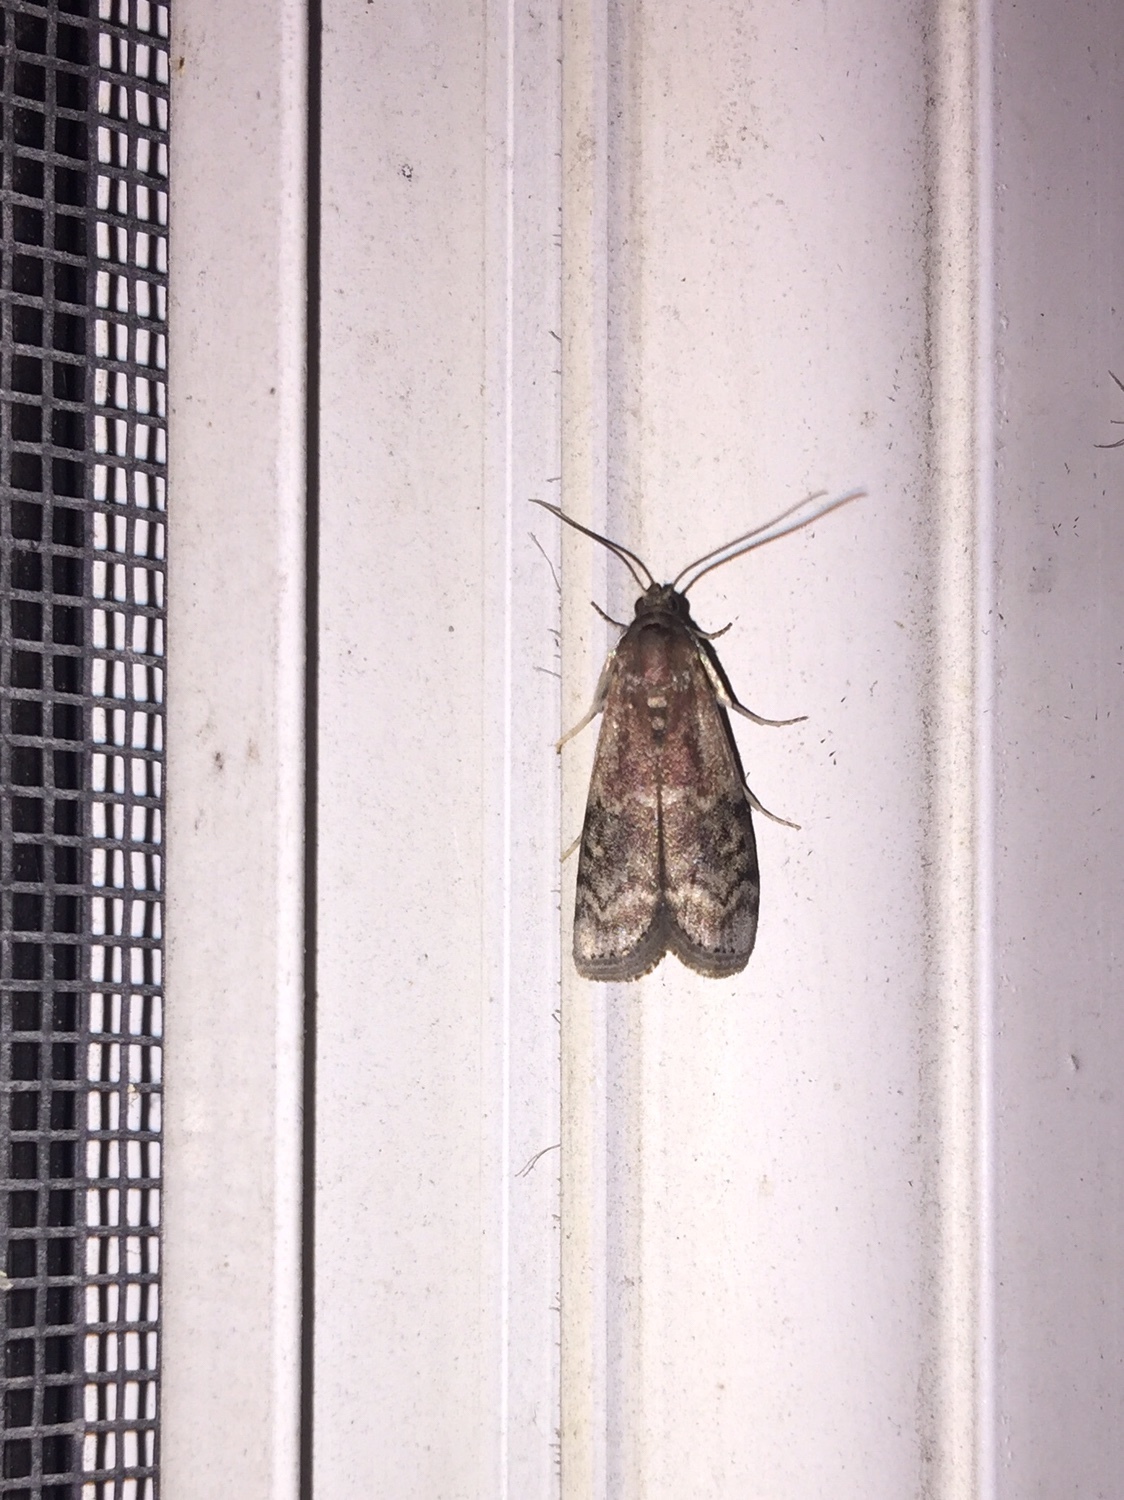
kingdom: Animalia
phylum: Arthropoda
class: Insecta
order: Lepidoptera
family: Pyralidae
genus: Euzophera
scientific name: Euzophera semifuneralis
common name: American plum borer moth
